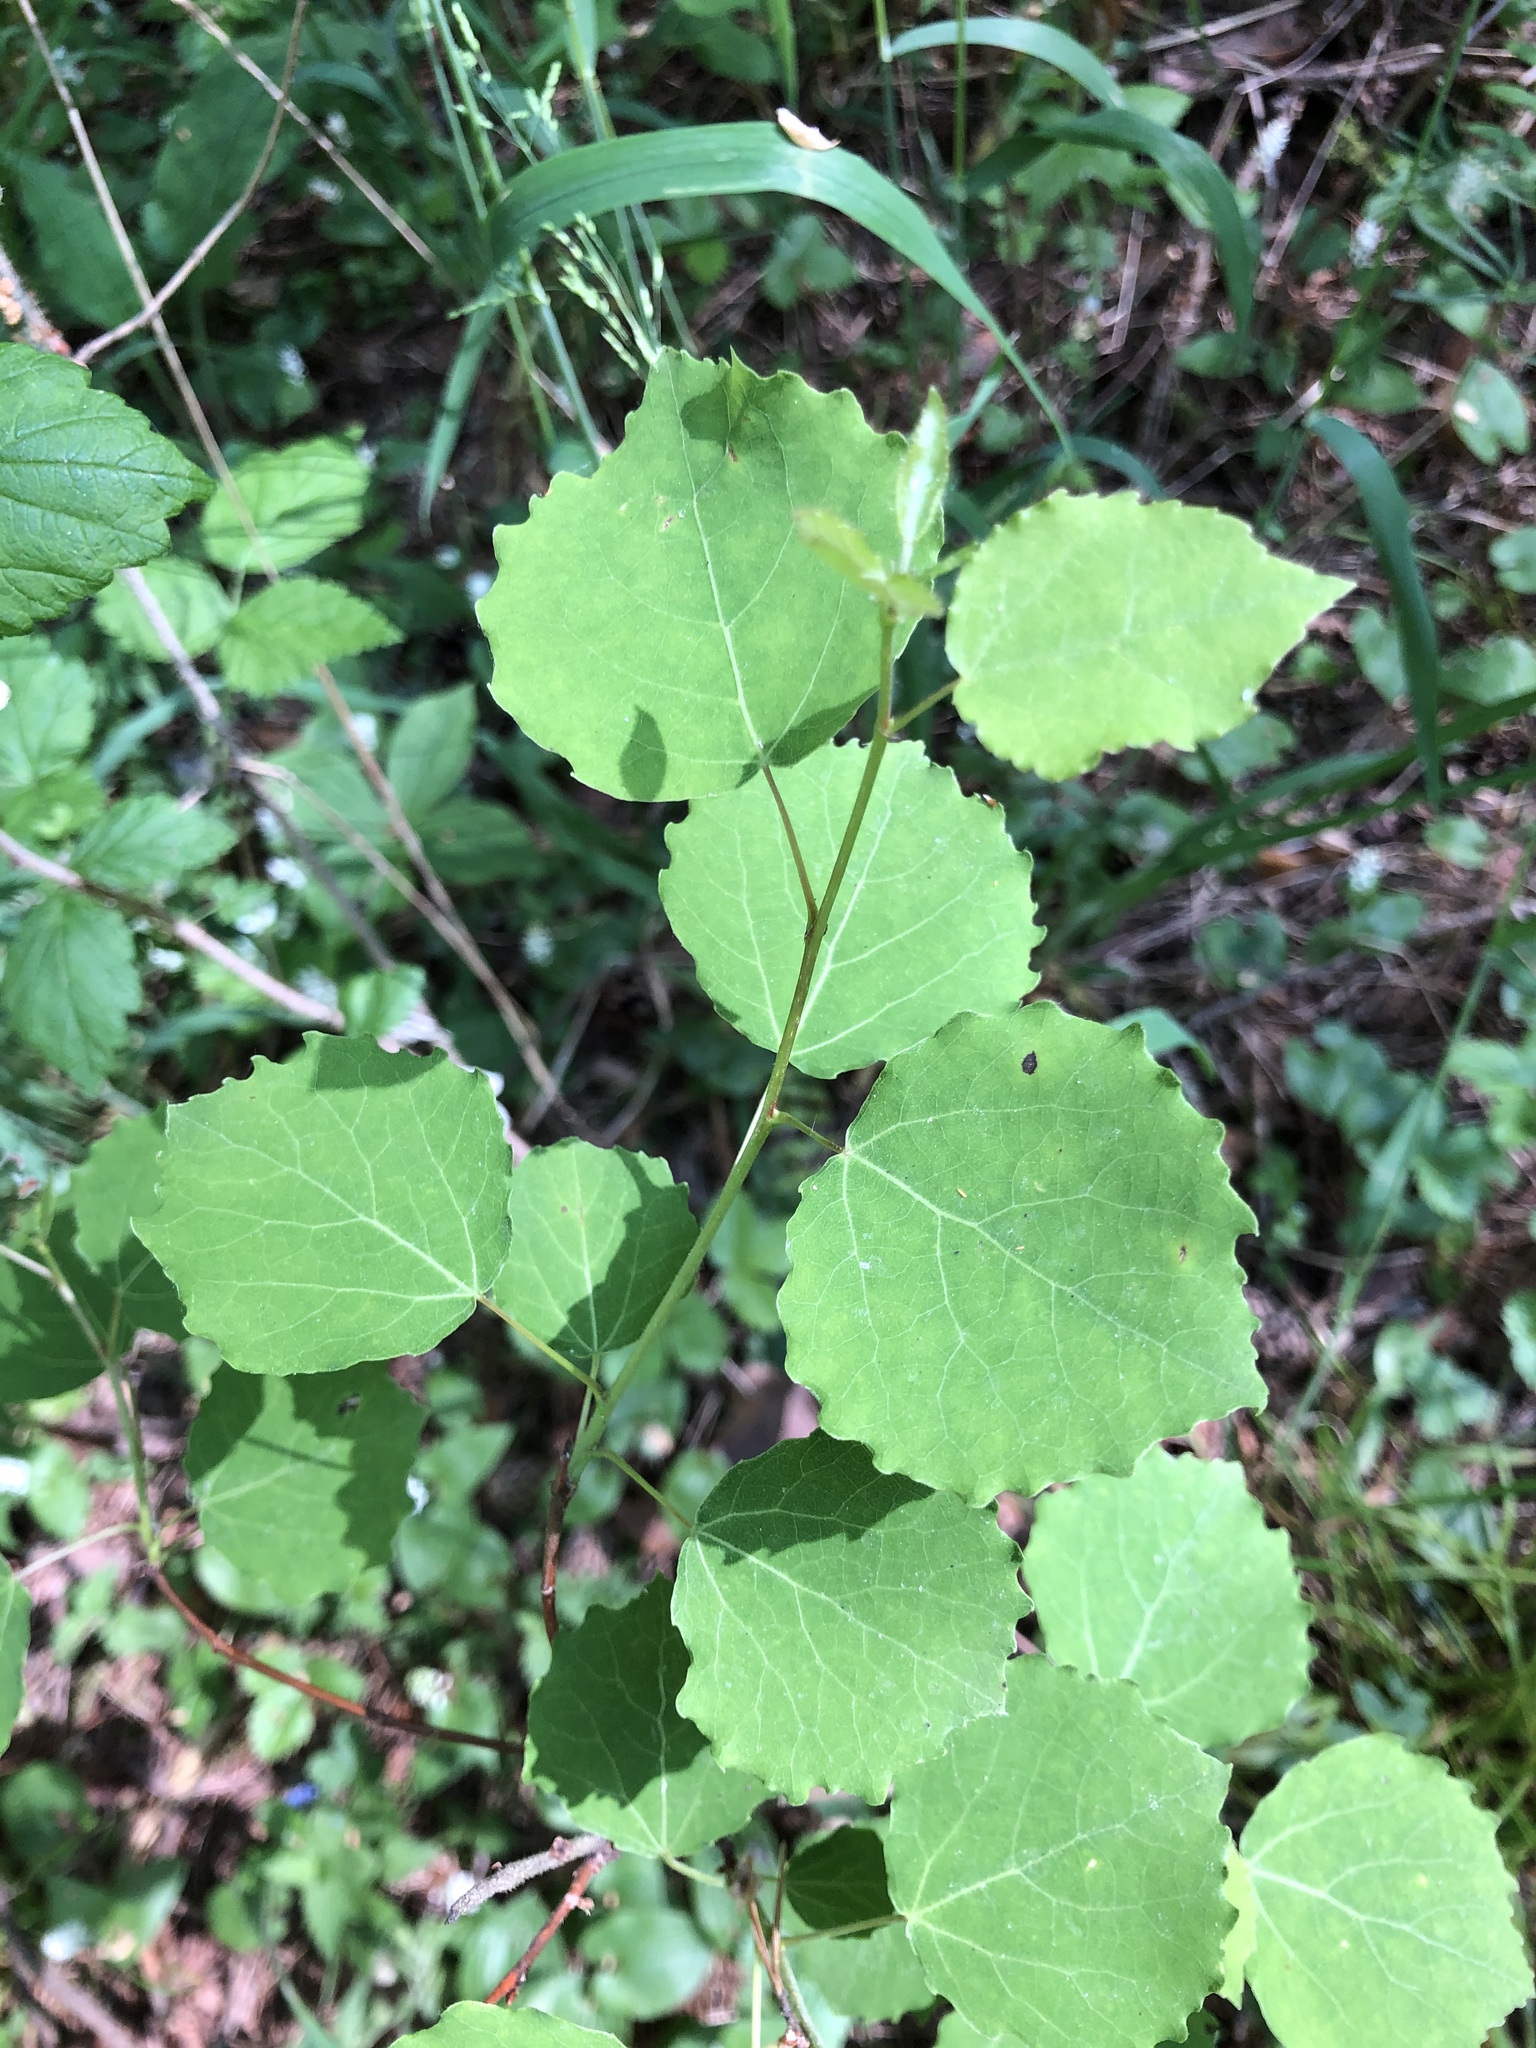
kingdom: Plantae
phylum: Tracheophyta
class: Magnoliopsida
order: Malpighiales
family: Salicaceae
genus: Populus
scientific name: Populus tremula
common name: European aspen
